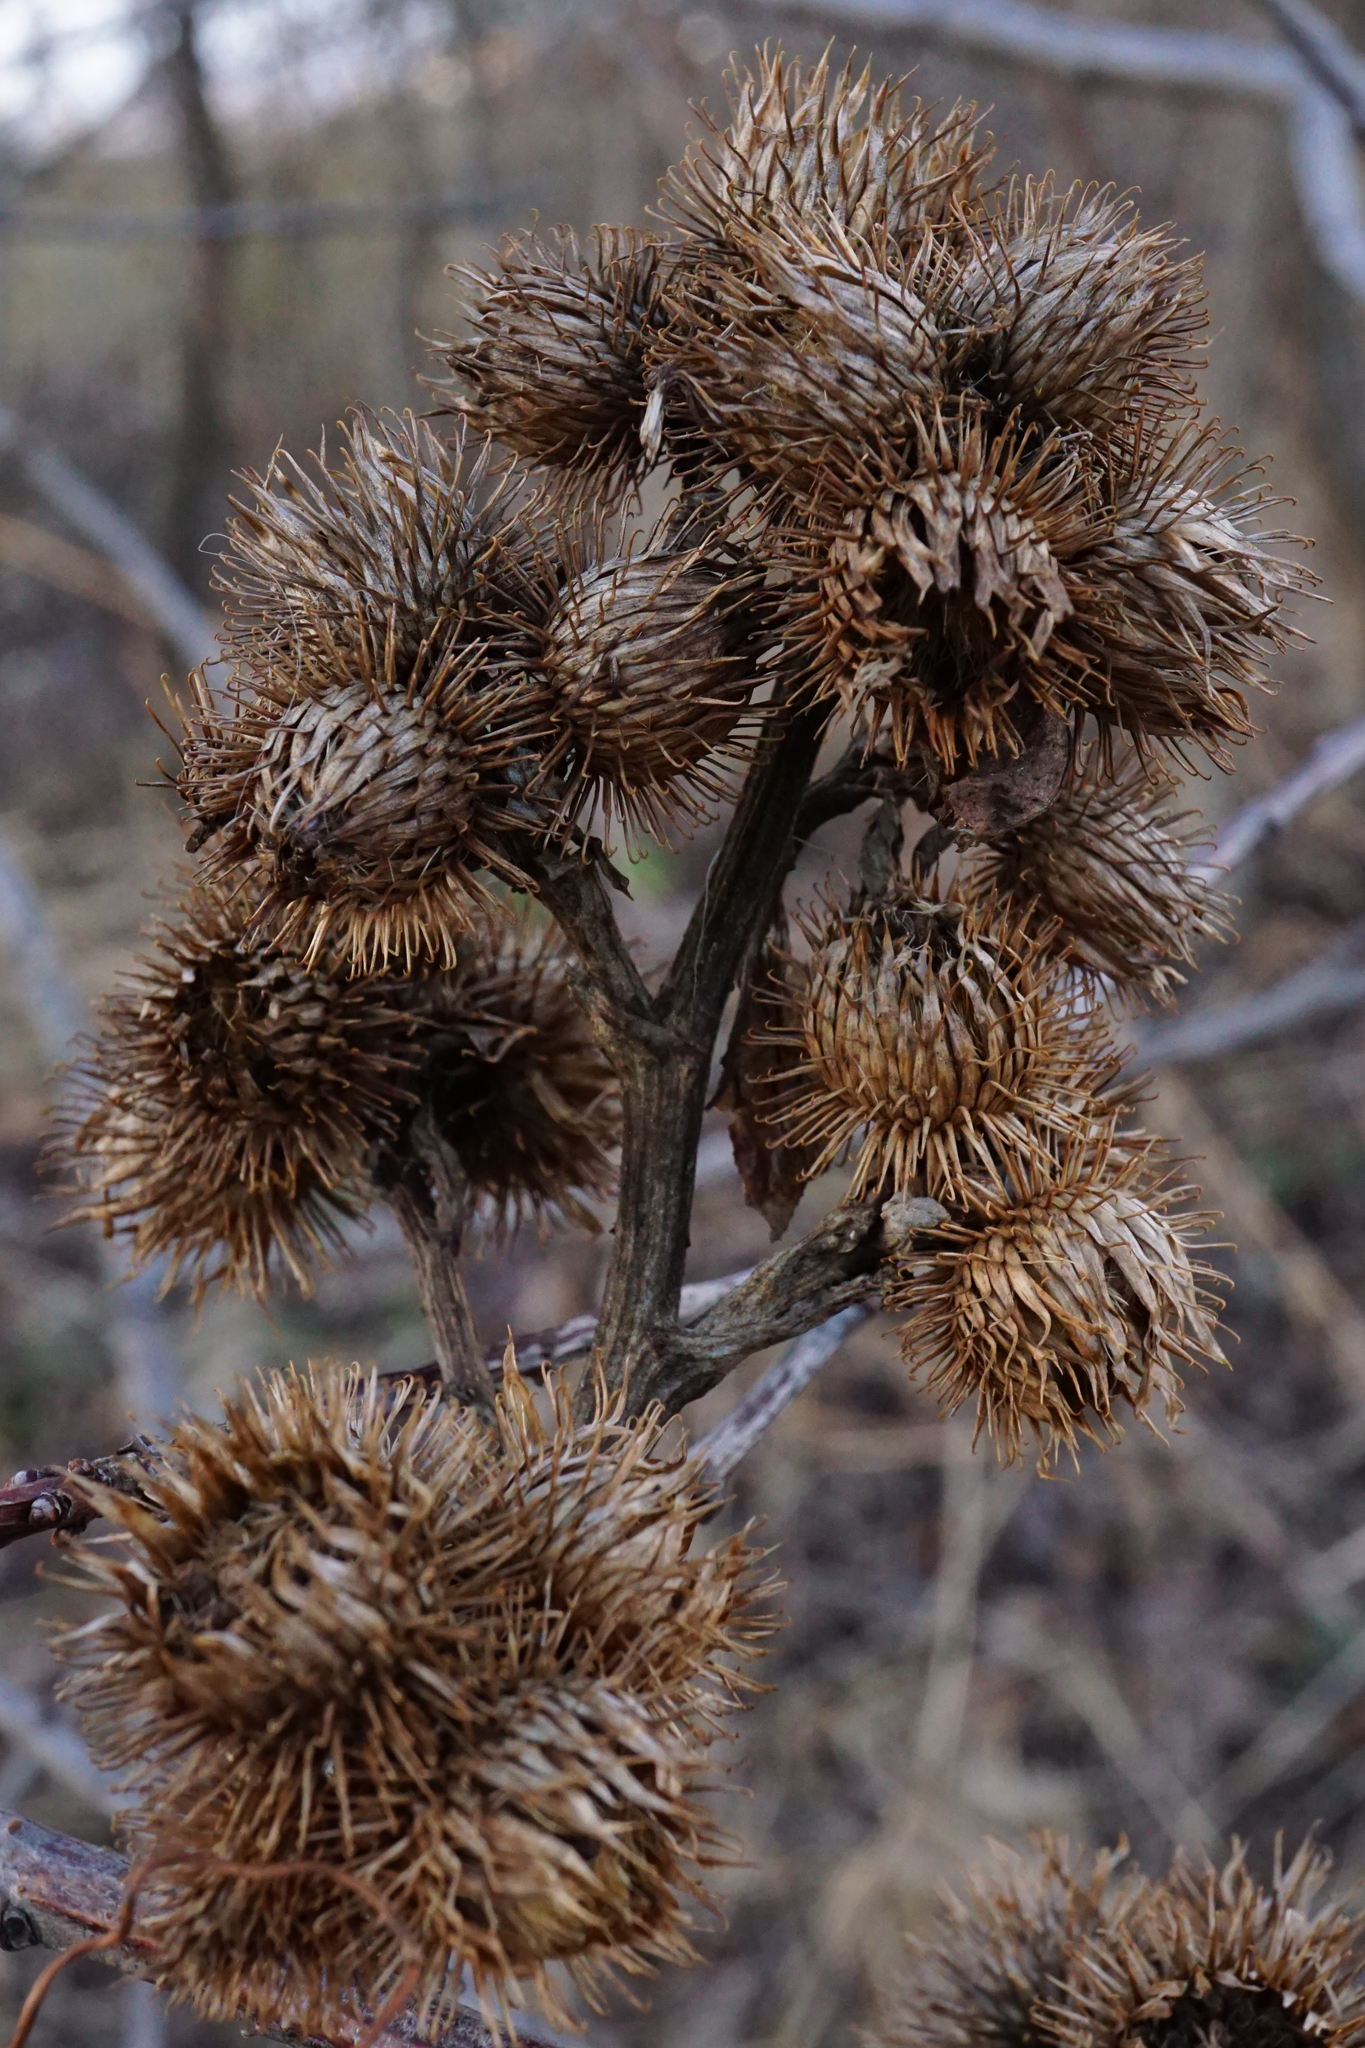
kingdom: Plantae
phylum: Tracheophyta
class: Magnoliopsida
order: Asterales
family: Asteraceae
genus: Arctium
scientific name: Arctium minus
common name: Lesser burdock
